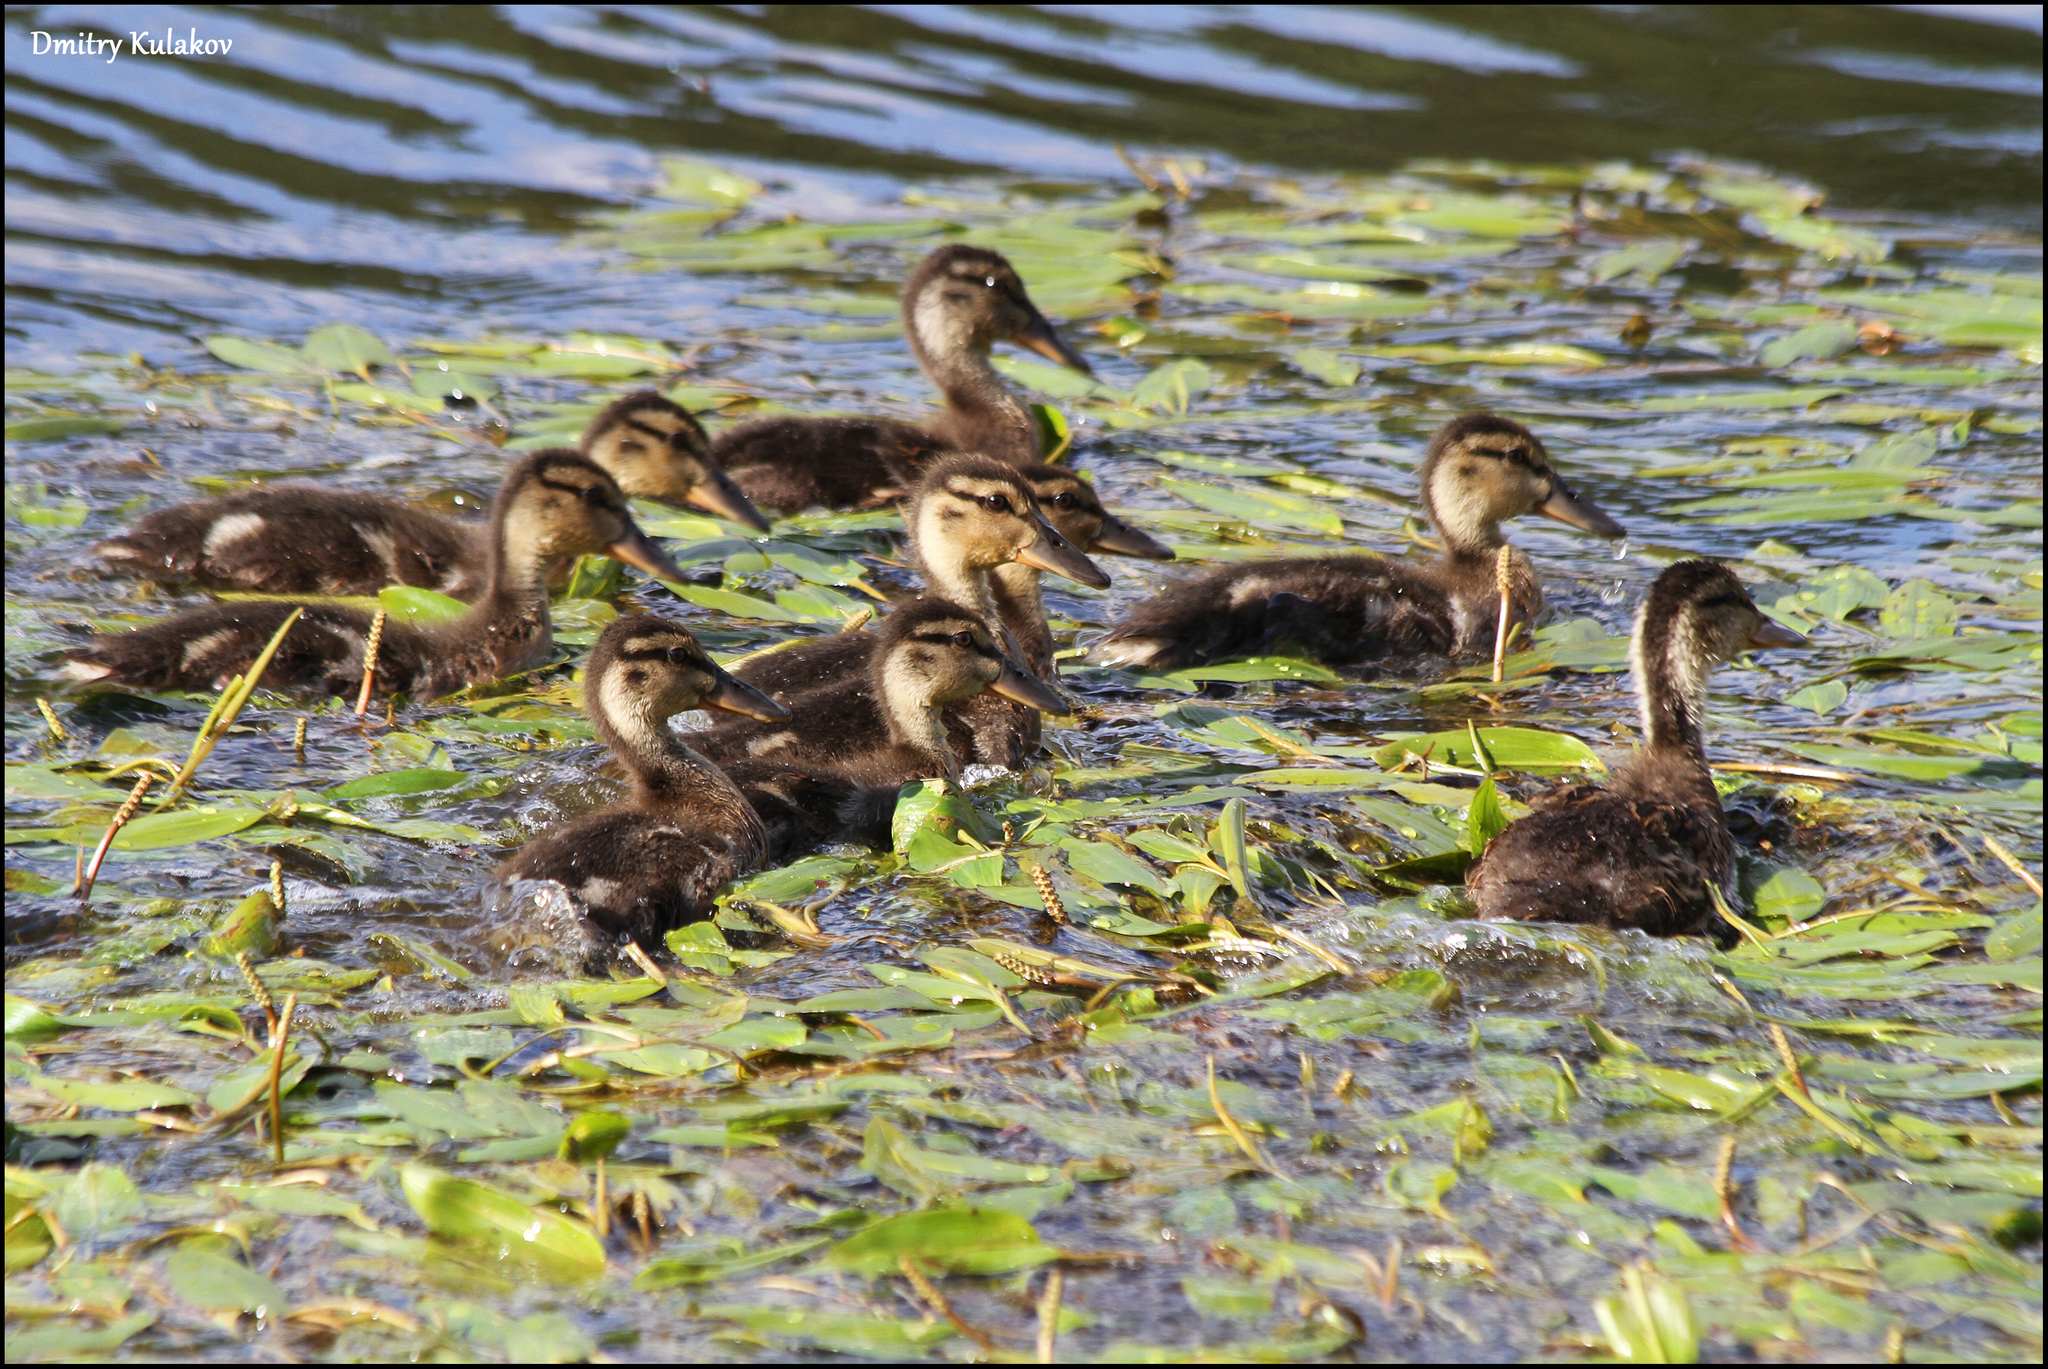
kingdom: Animalia
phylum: Chordata
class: Aves
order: Anseriformes
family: Anatidae
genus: Anas
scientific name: Anas platyrhynchos
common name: Mallard
